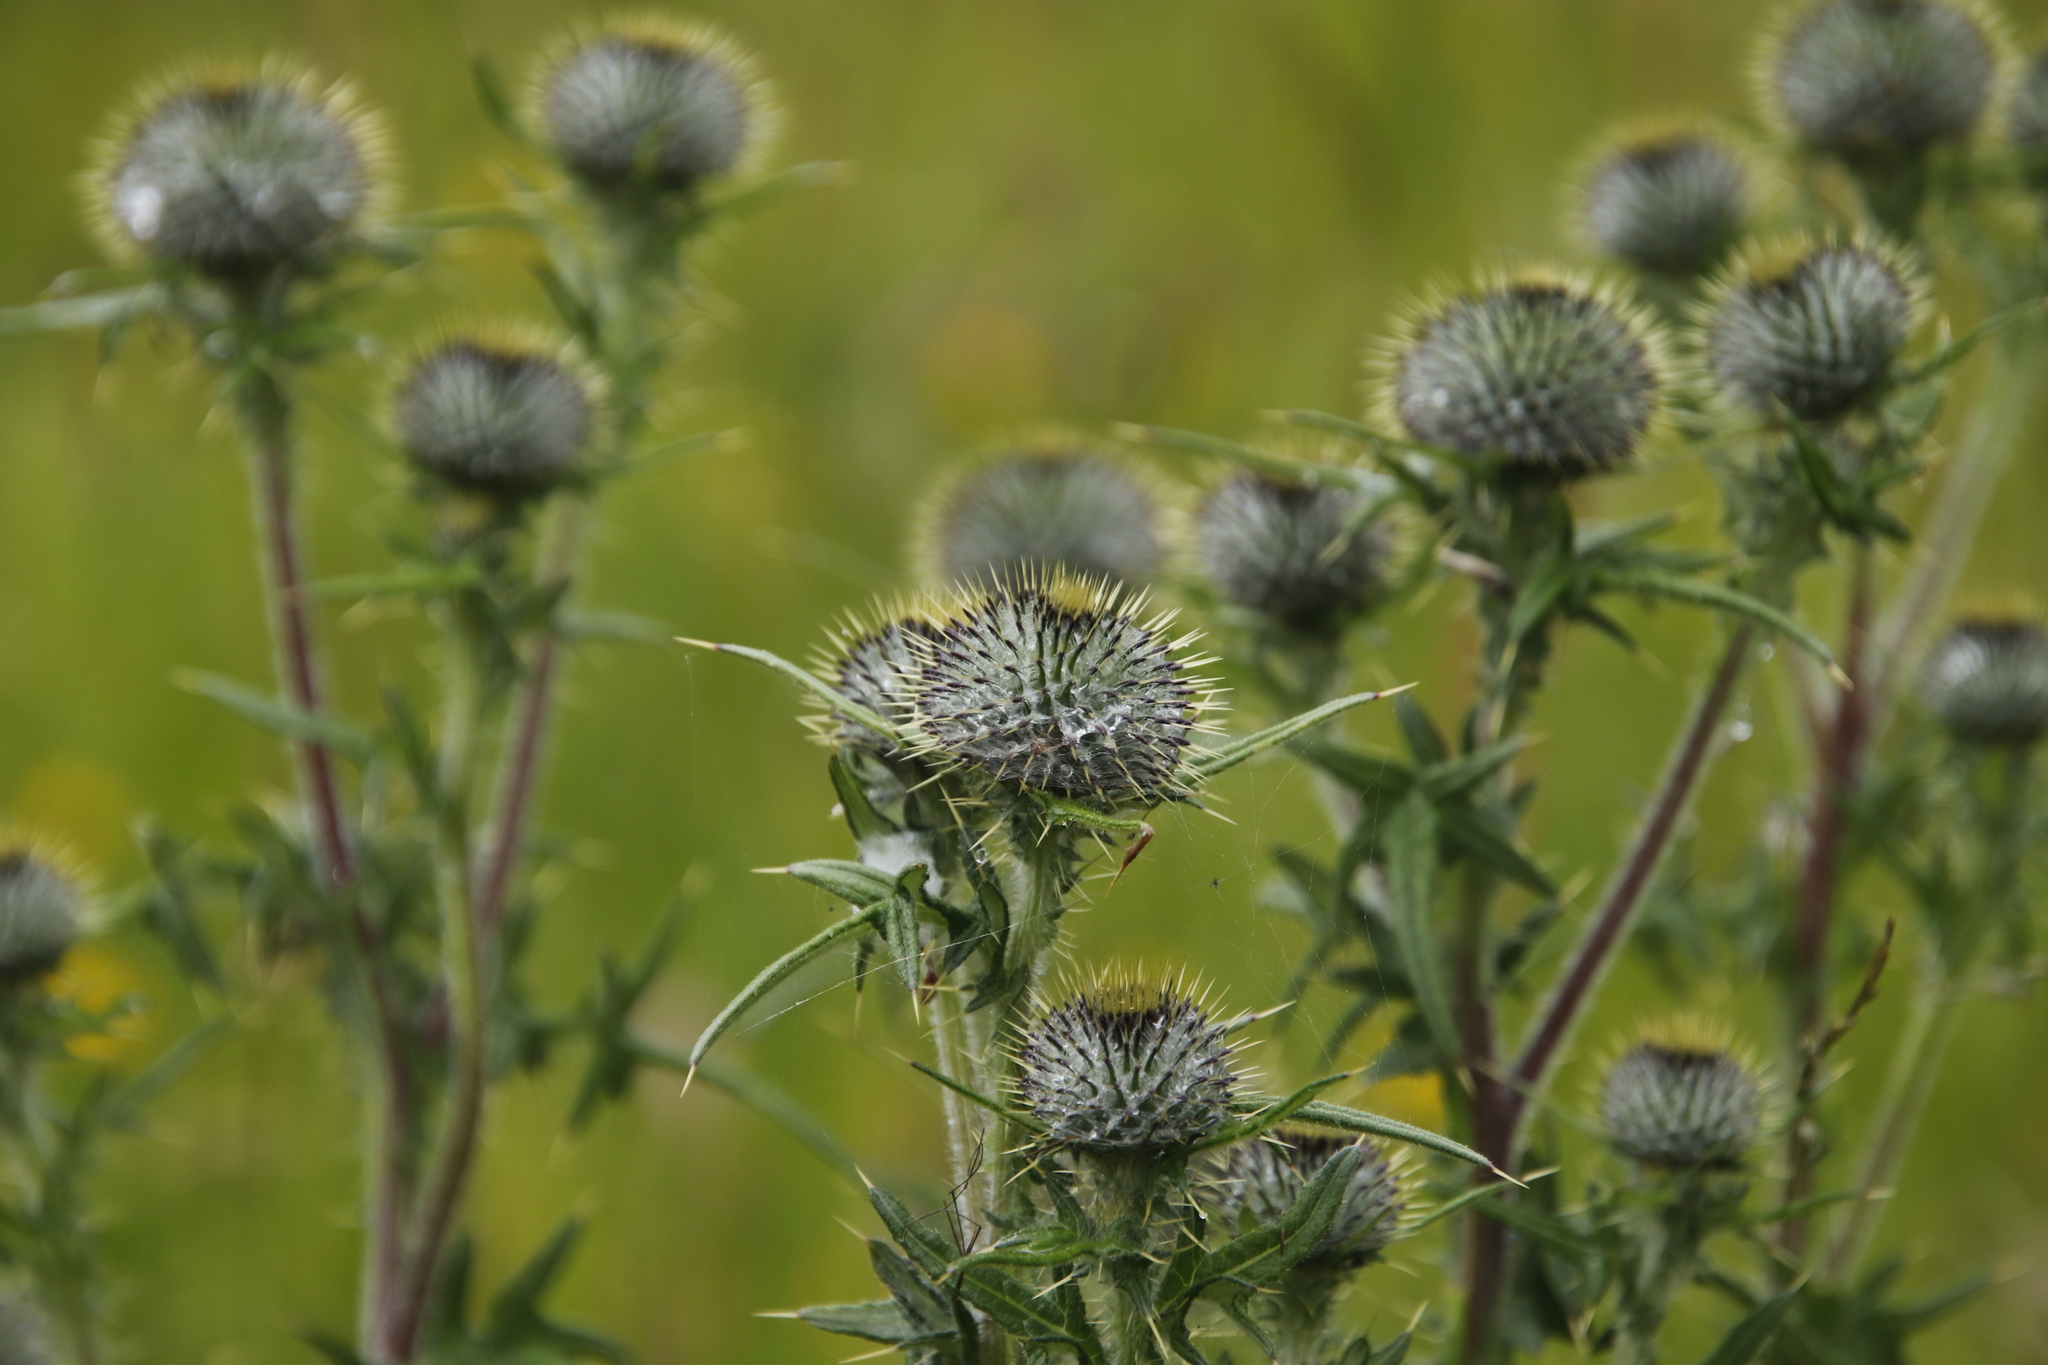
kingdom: Plantae
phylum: Tracheophyta
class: Magnoliopsida
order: Asterales
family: Asteraceae
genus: Lophiolepis
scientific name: Lophiolepis eriophora
